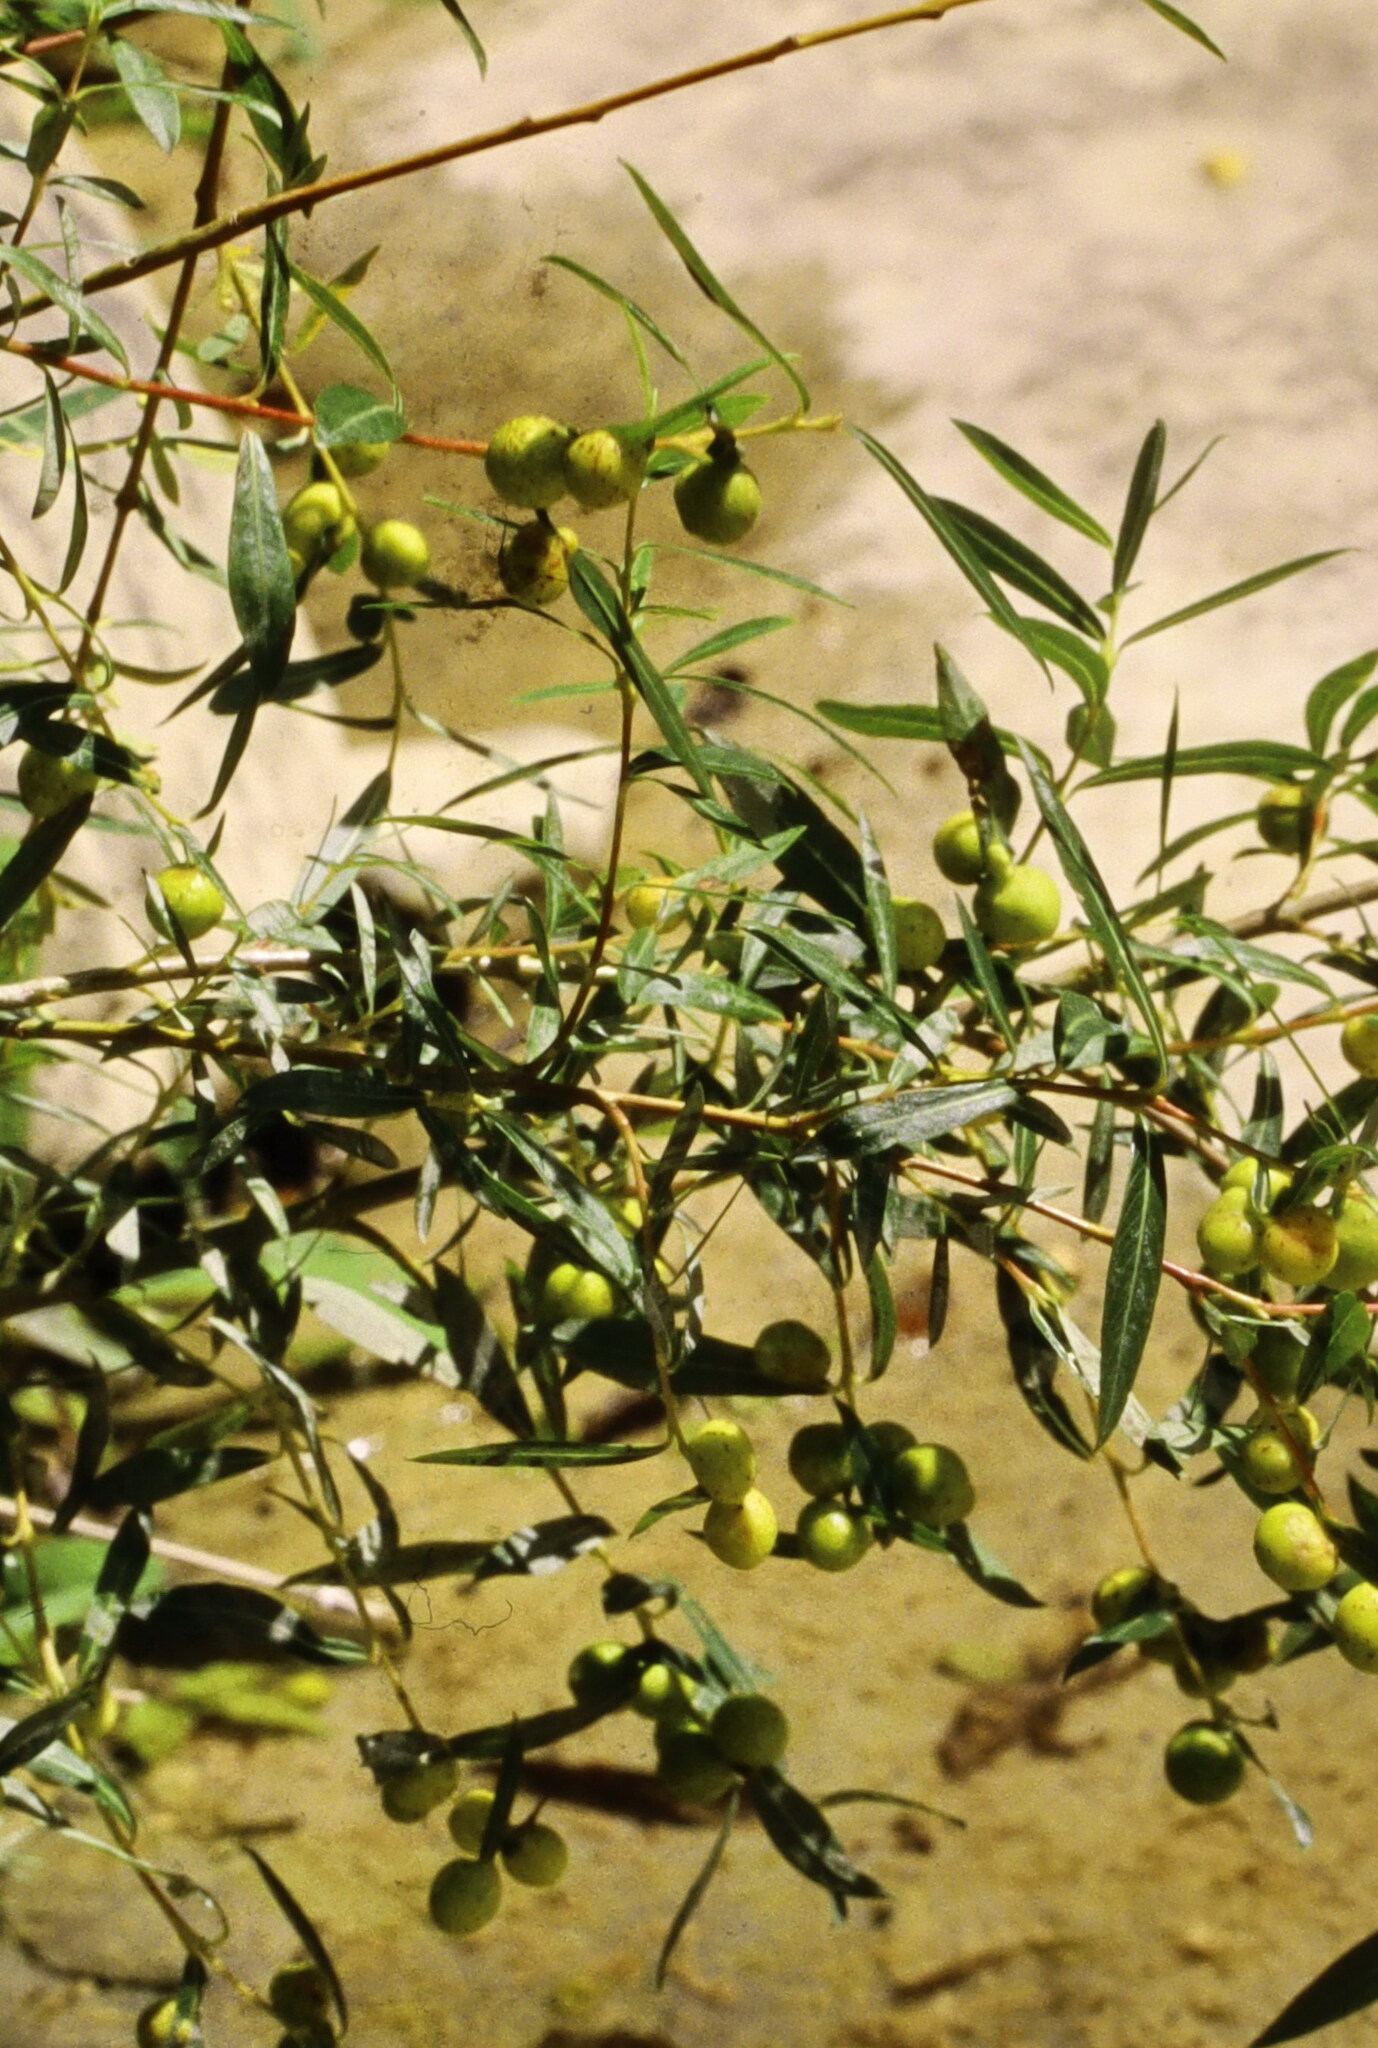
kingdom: Animalia
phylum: Arthropoda
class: Insecta
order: Hymenoptera
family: Tenthredinidae
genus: Euura
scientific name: Euura viminalis
